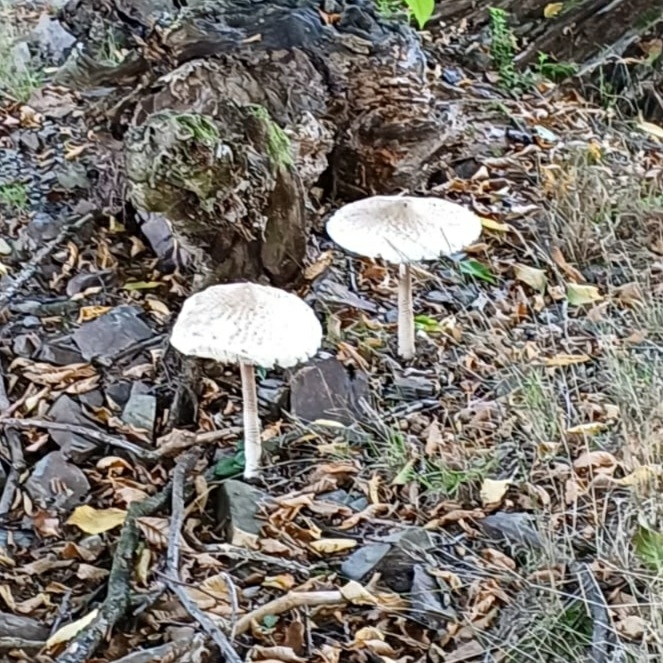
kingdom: Fungi
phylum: Basidiomycota
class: Agaricomycetes
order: Agaricales
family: Agaricaceae
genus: Macrolepiota
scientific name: Macrolepiota procera
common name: Parasol
